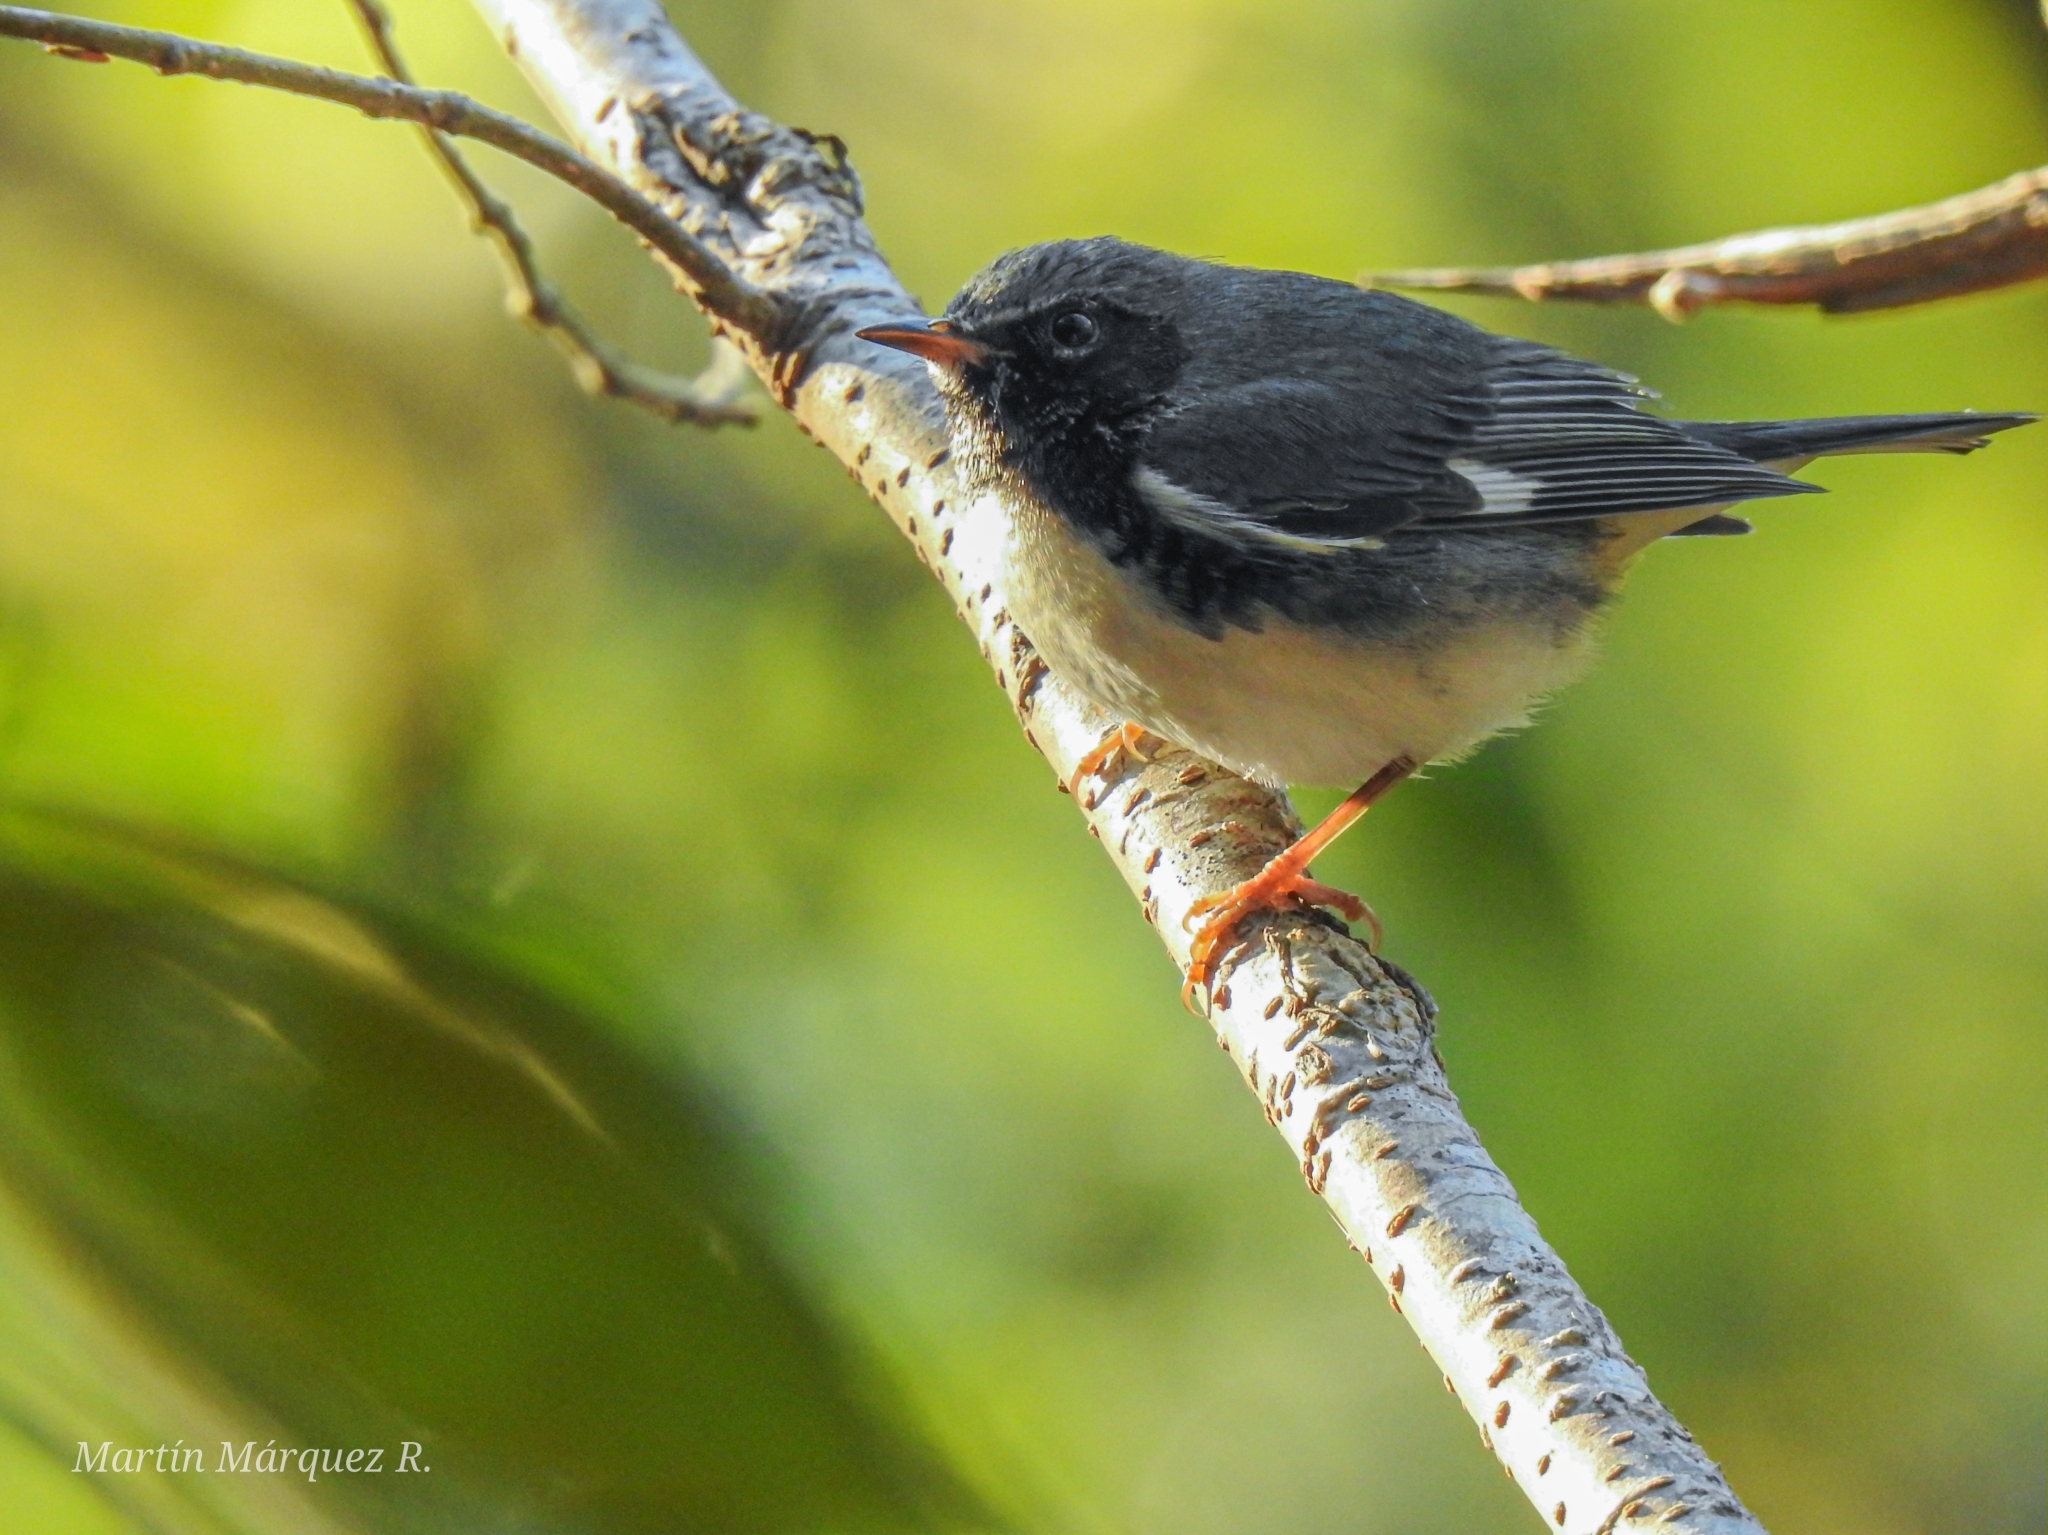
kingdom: Animalia
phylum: Chordata
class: Aves
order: Passeriformes
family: Parulidae
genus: Setophaga
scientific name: Setophaga caerulescens
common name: Black-throated blue warbler
